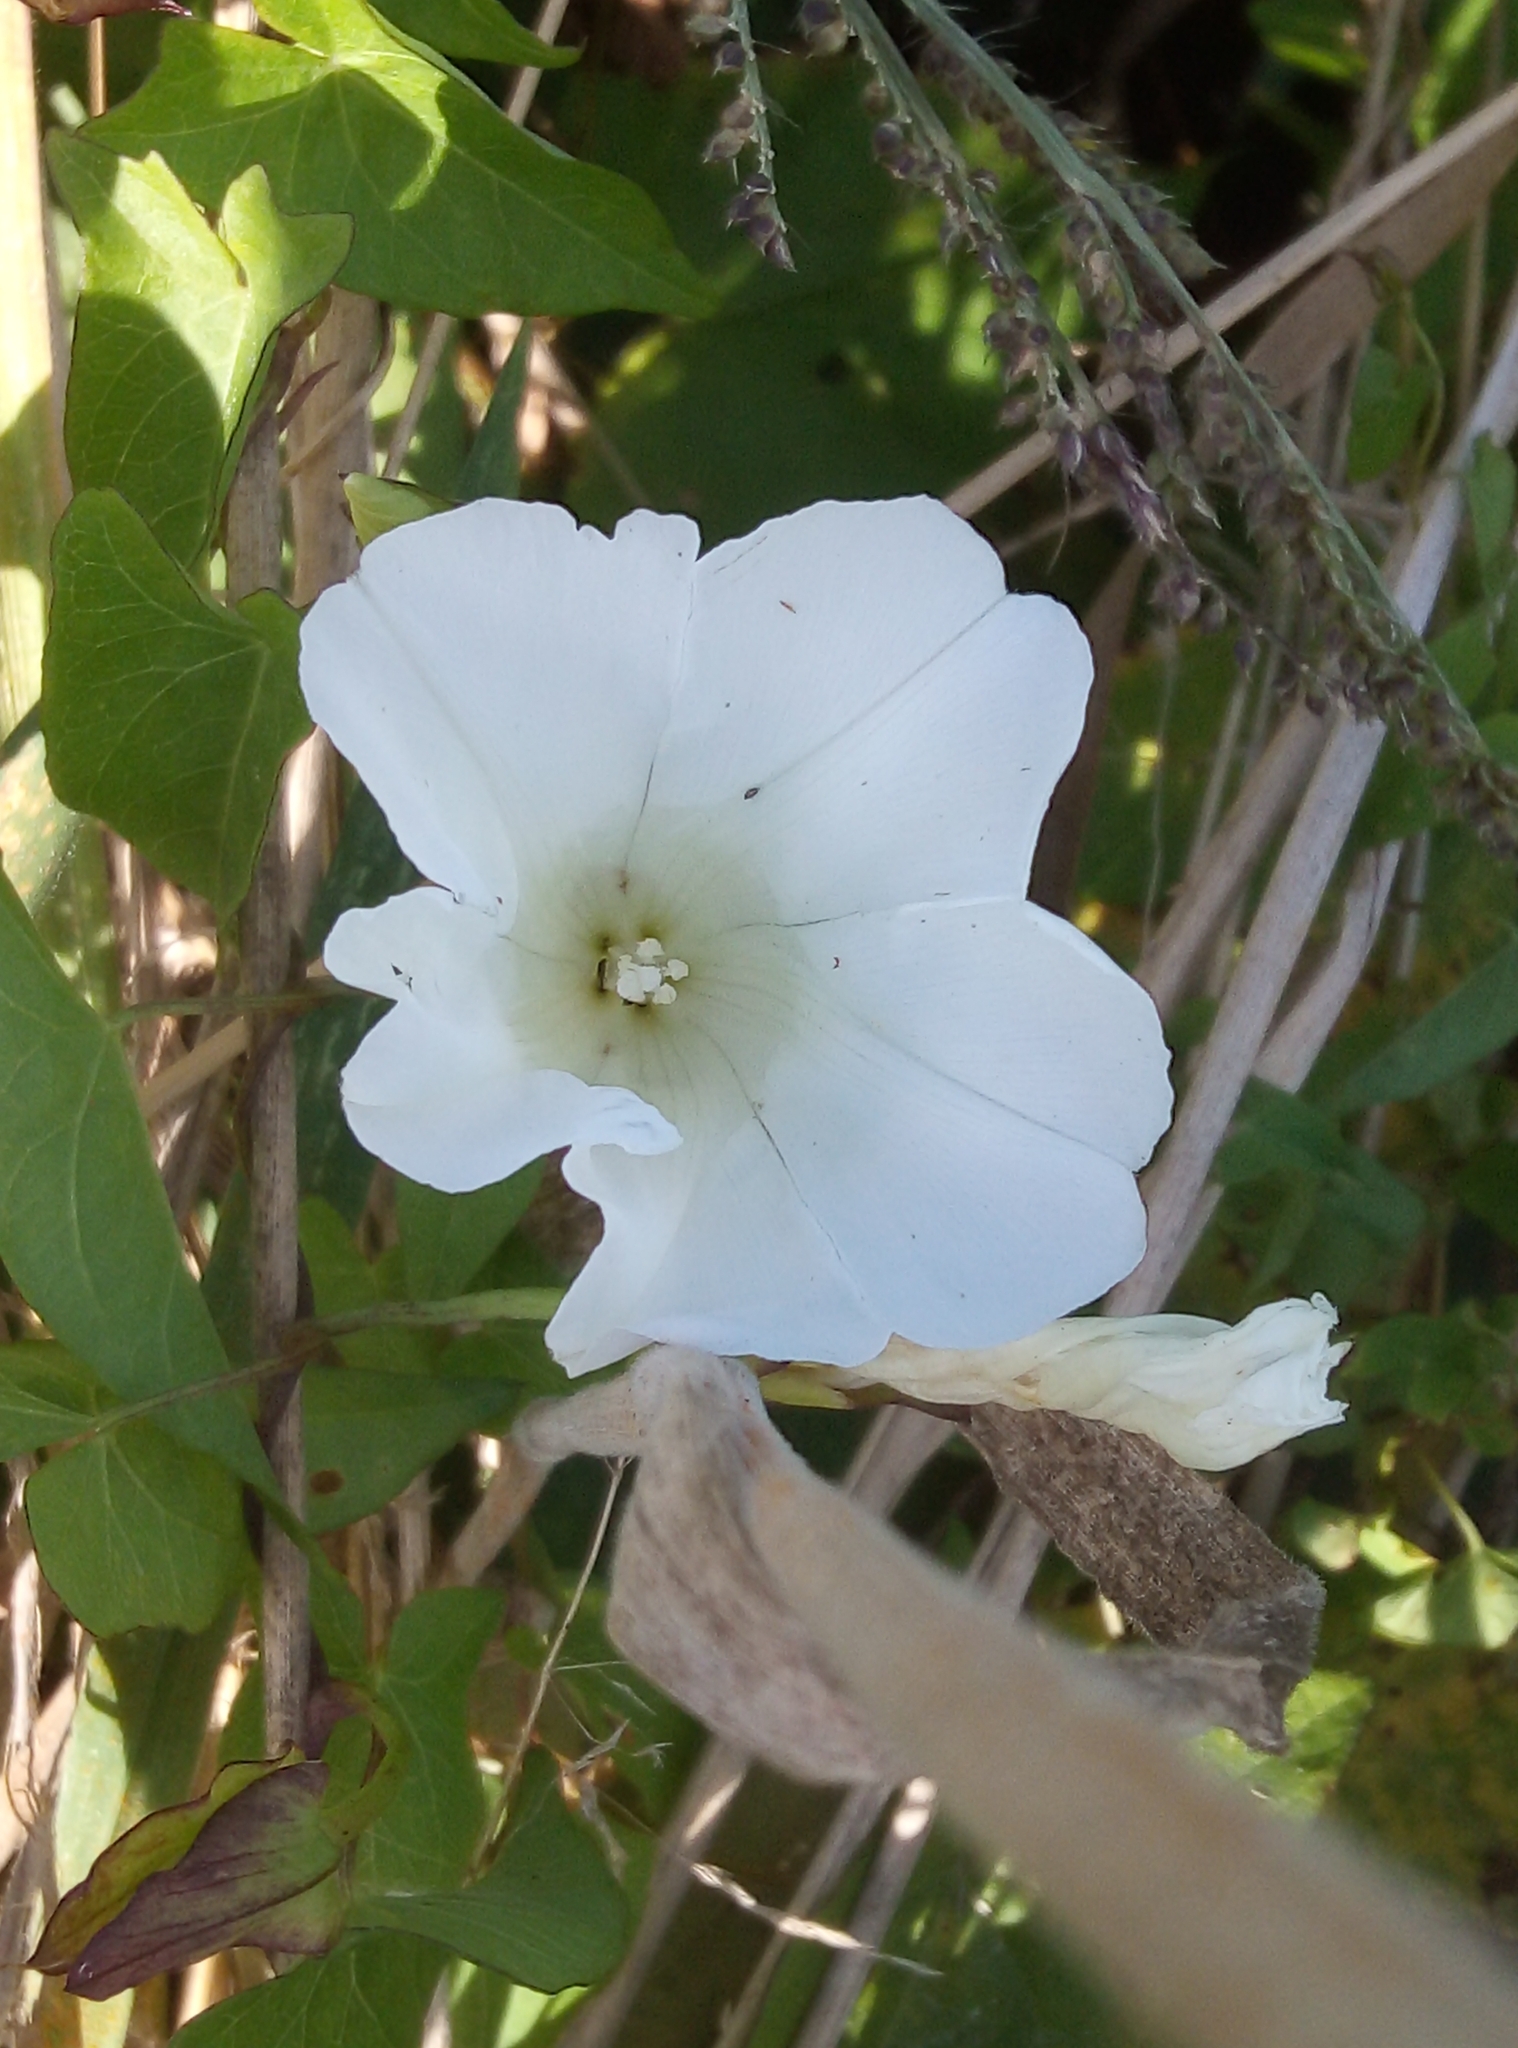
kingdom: Plantae
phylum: Tracheophyta
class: Magnoliopsida
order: Solanales
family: Convolvulaceae
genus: Calystegia
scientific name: Calystegia sepium
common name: Hedge bindweed
